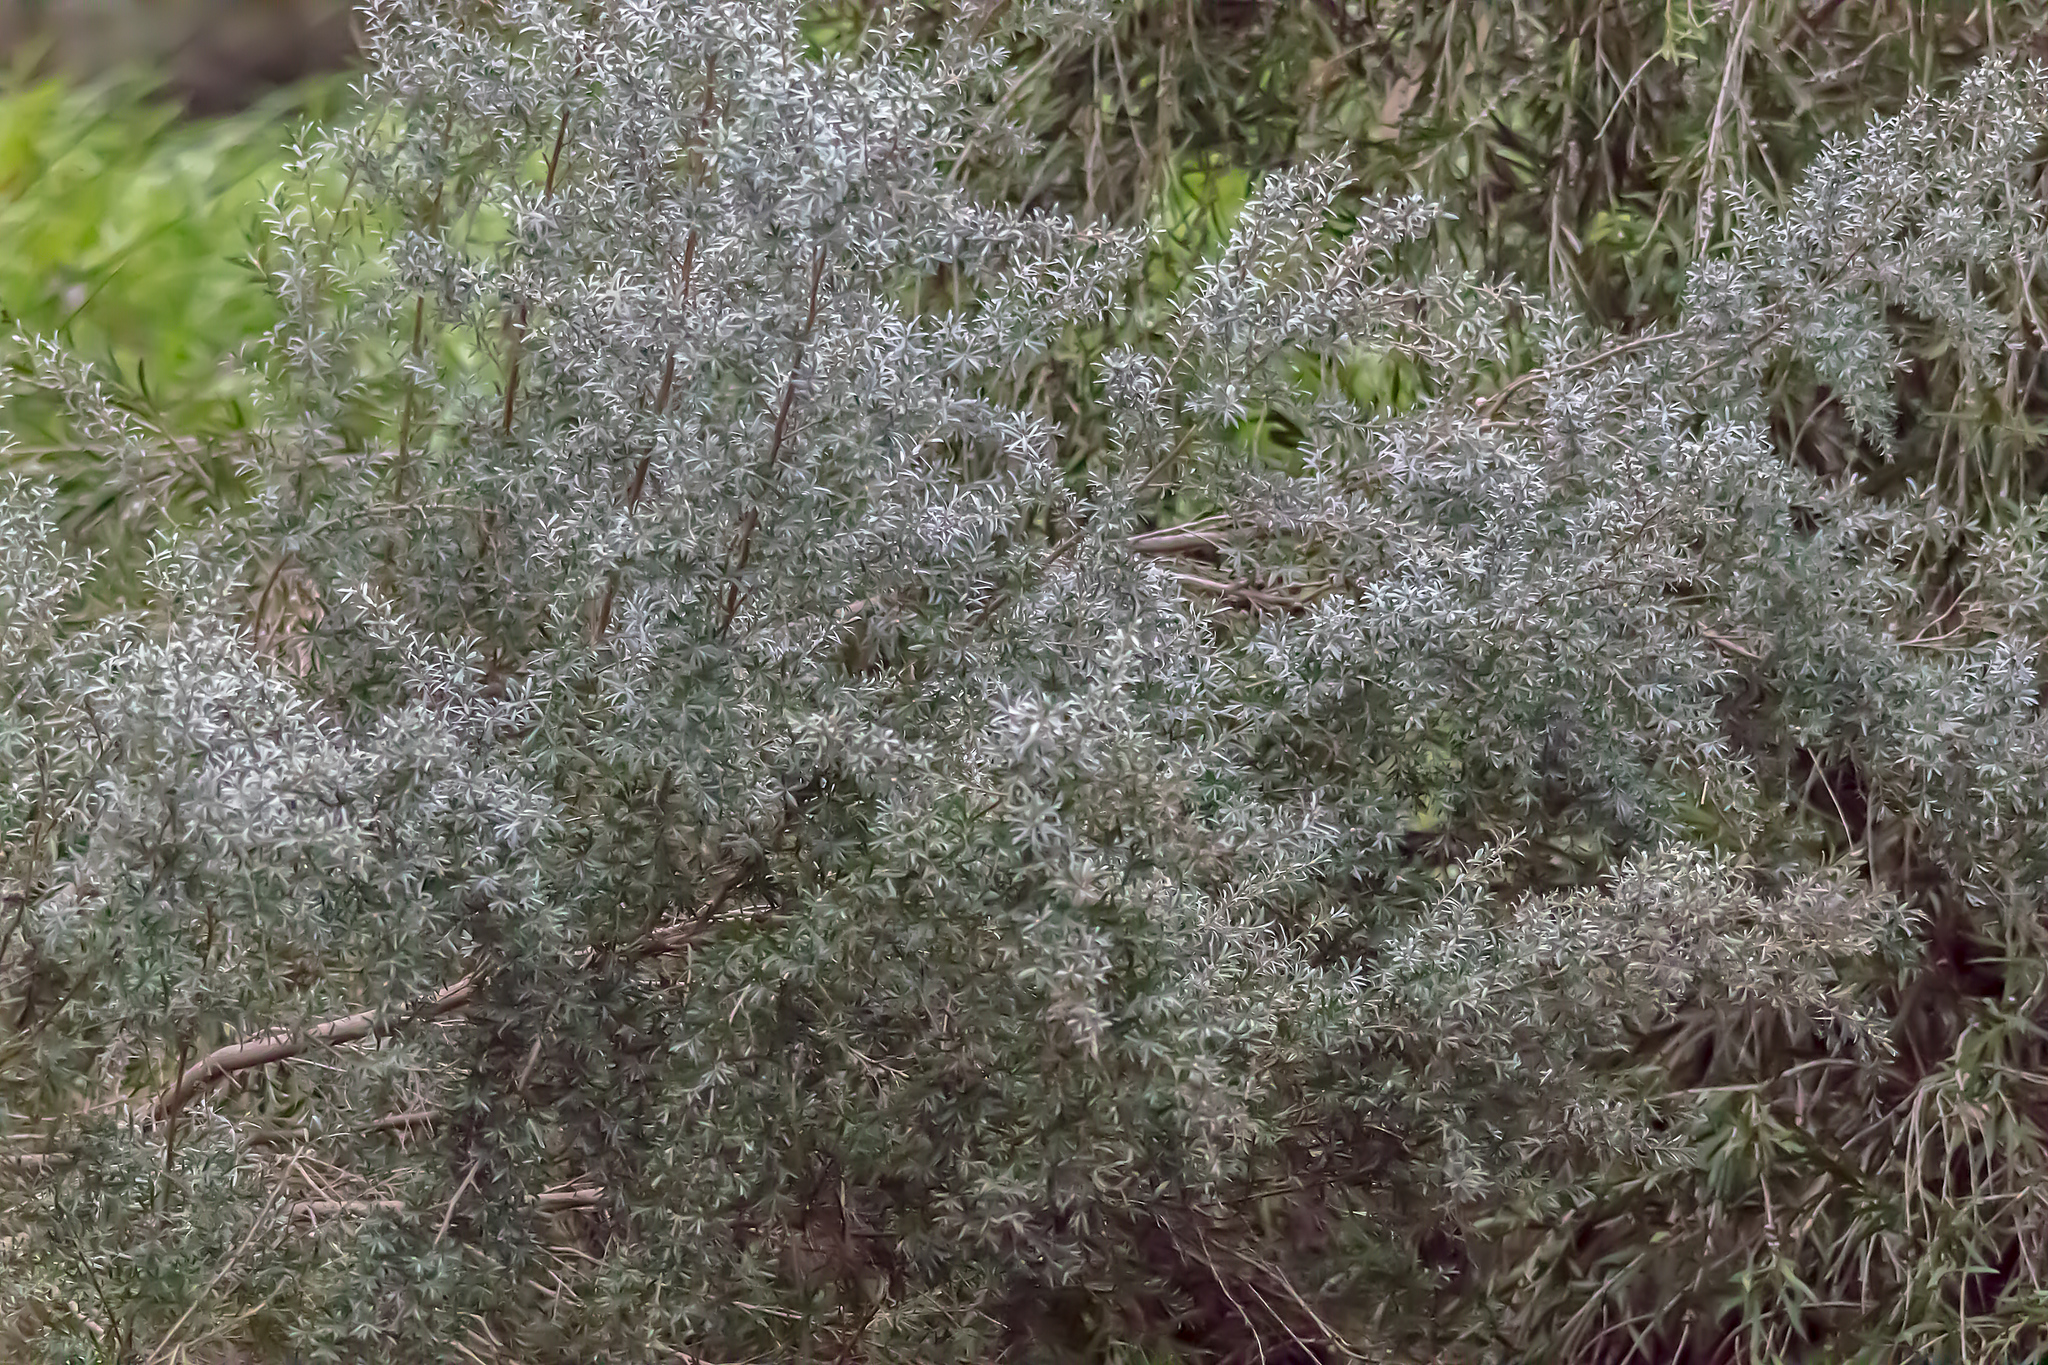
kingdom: Plantae
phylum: Tracheophyta
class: Magnoliopsida
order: Myrtales
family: Myrtaceae
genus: Leptospermum
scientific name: Leptospermum lanigerum
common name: Woolly tea-tree
